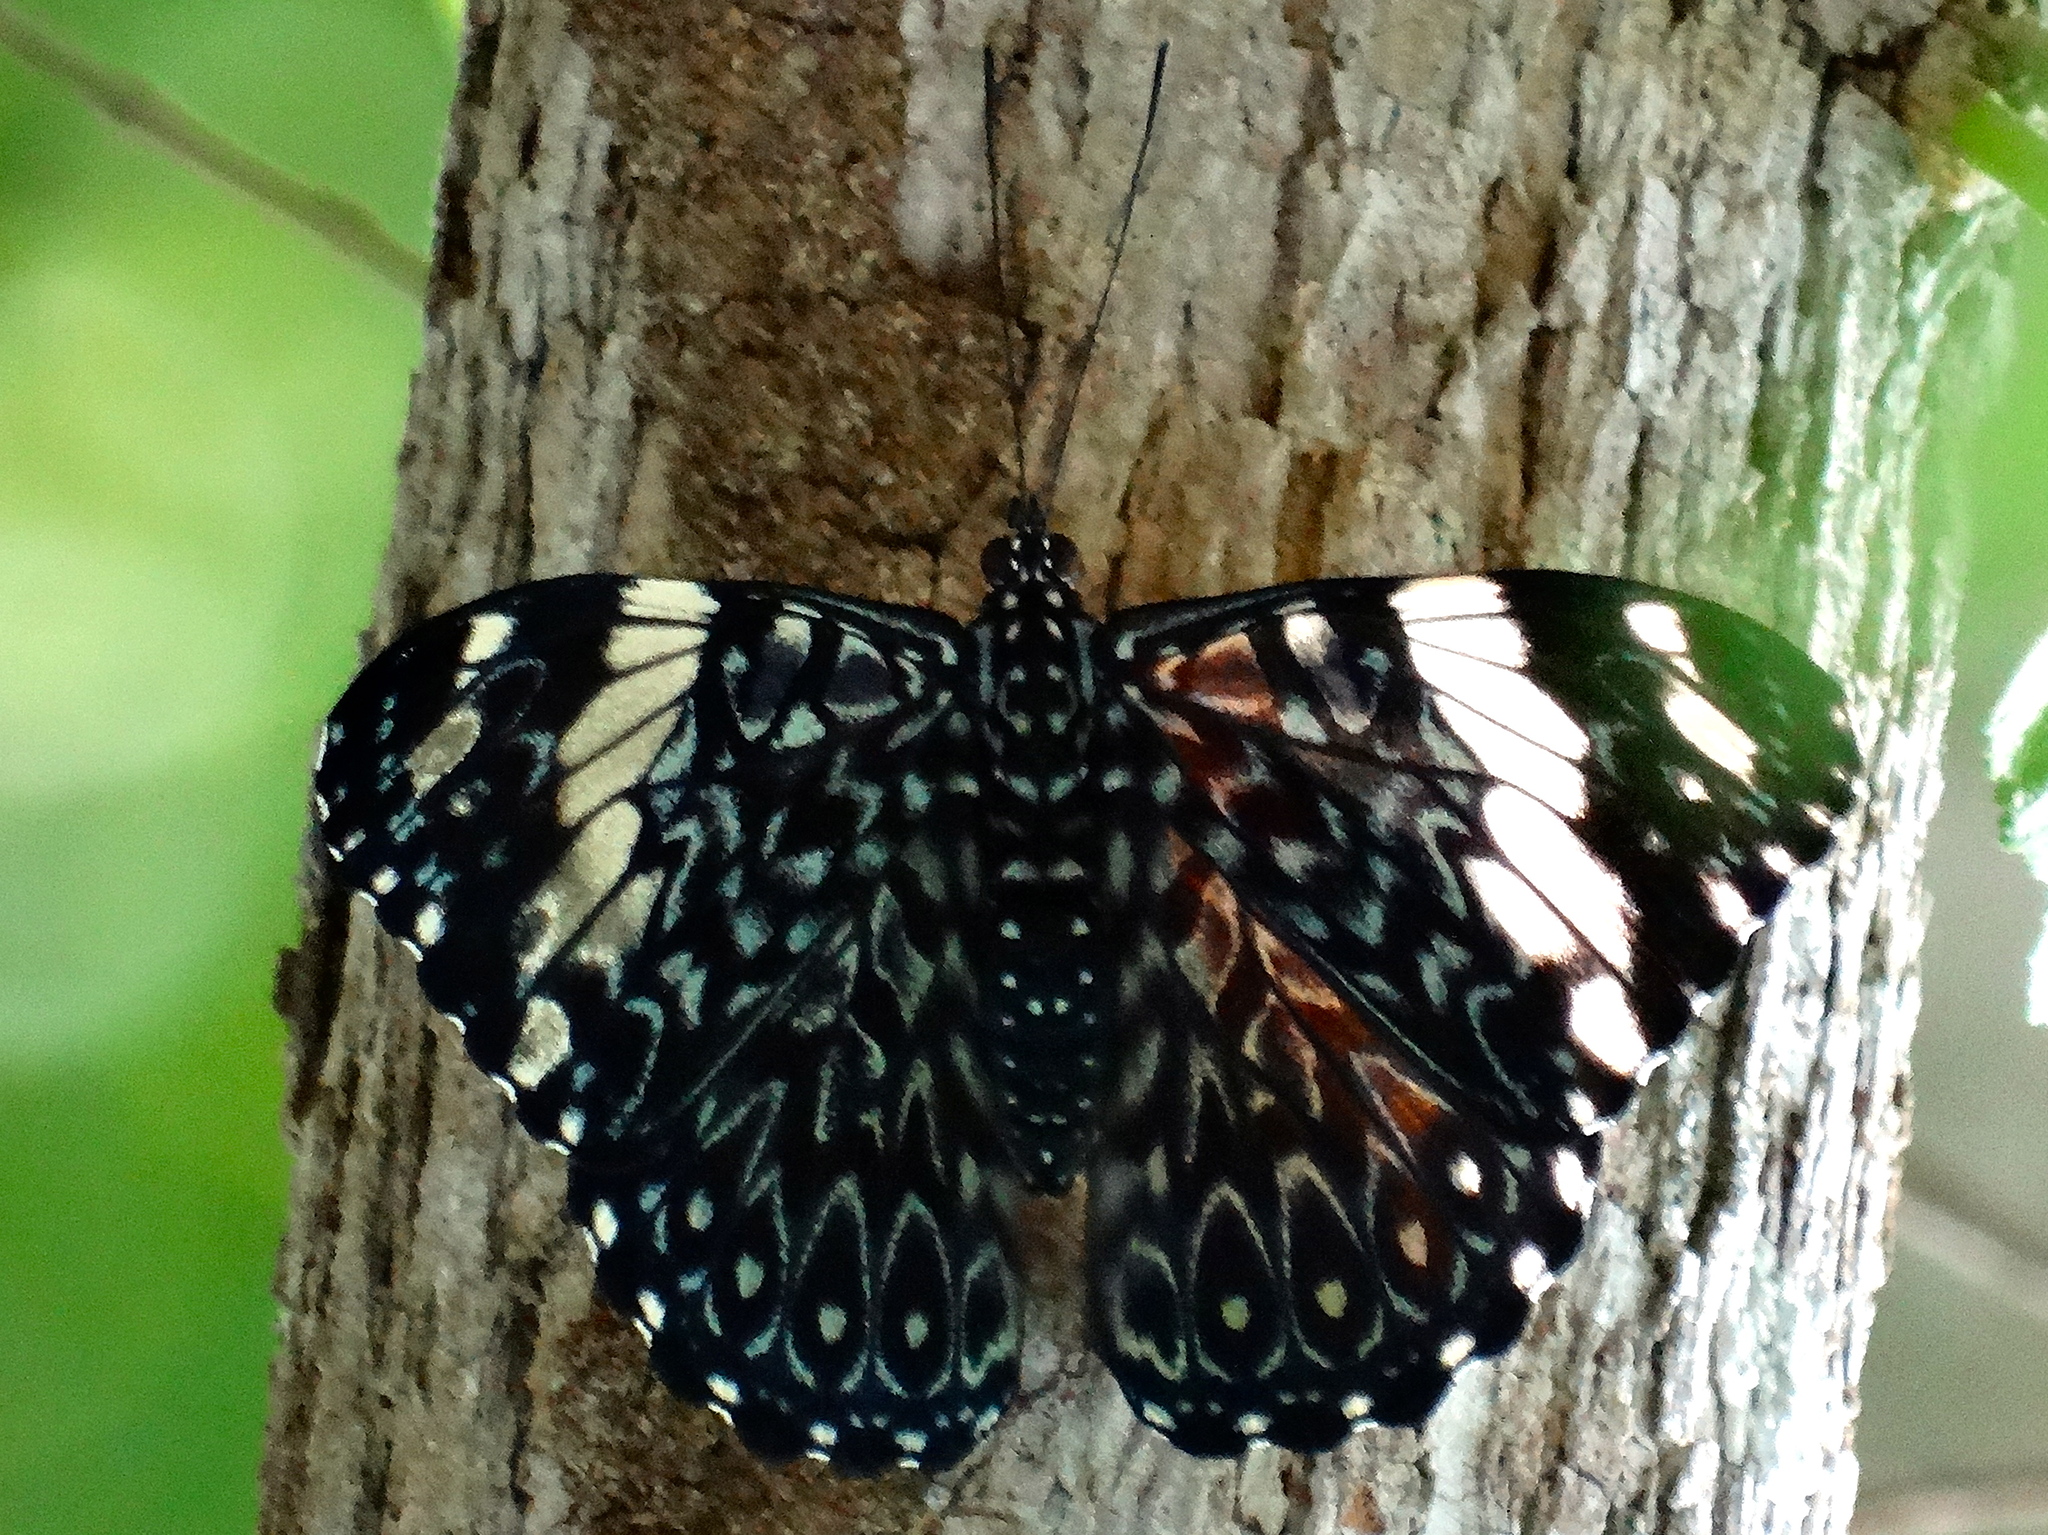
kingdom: Animalia
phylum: Arthropoda
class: Insecta
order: Lepidoptera
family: Nymphalidae
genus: Hamadryas
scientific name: Hamadryas amphinome
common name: Red cracker
